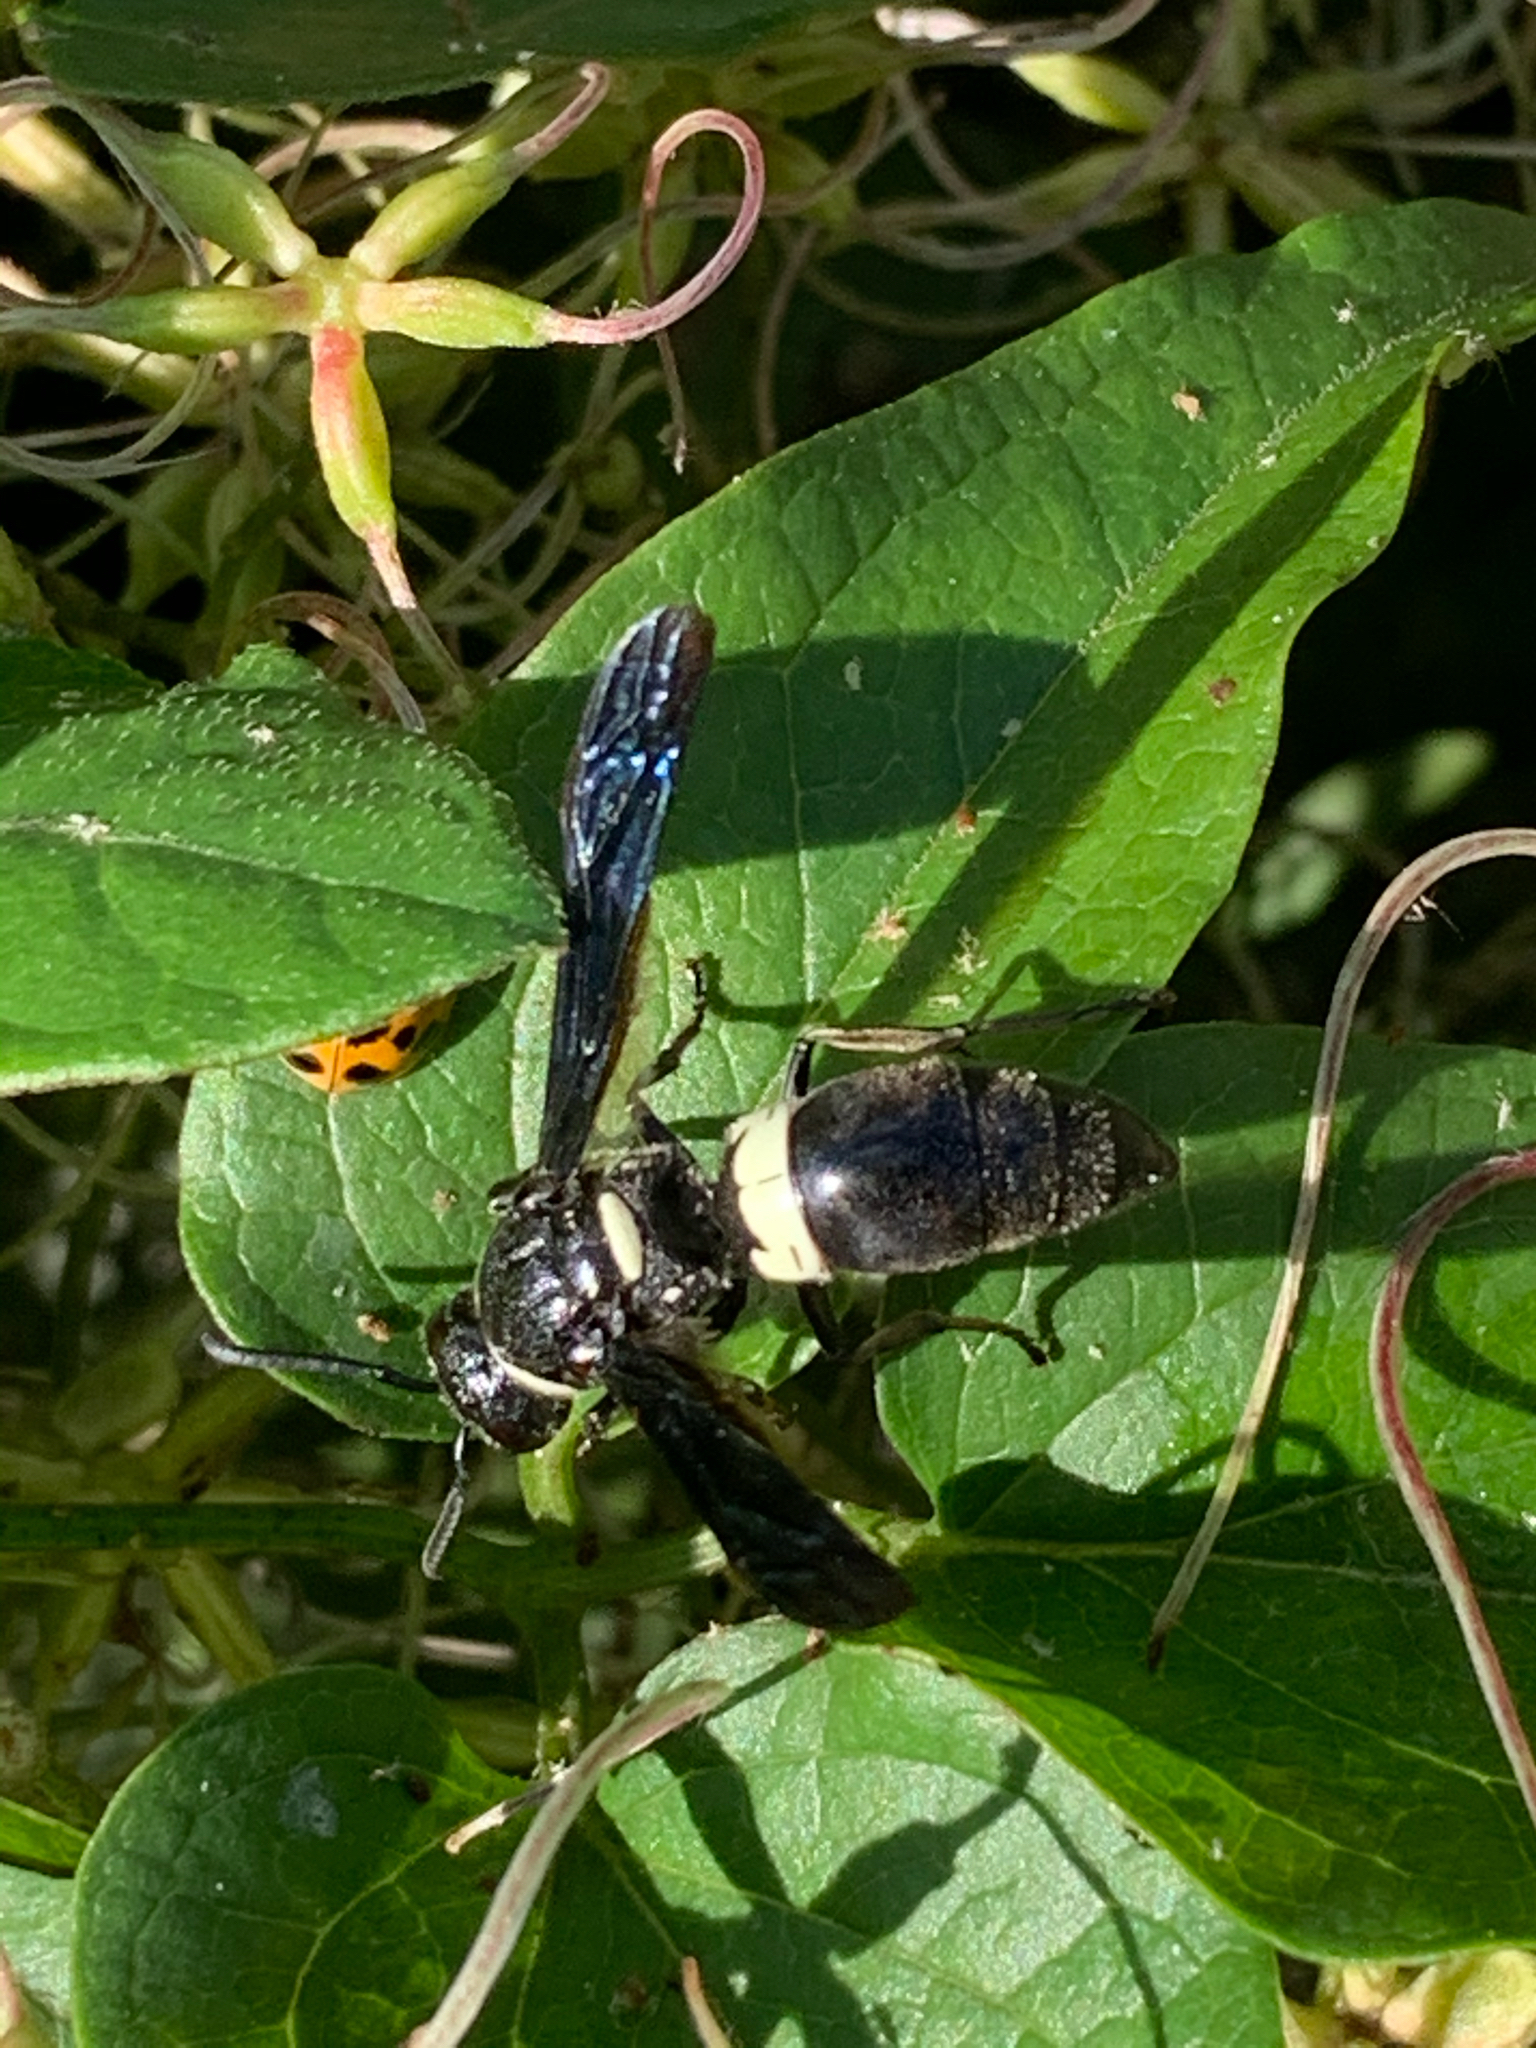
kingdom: Animalia
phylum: Arthropoda
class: Insecta
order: Hymenoptera
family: Eumenidae
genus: Monobia
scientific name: Monobia quadridens
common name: Four-toothed mason wasp
